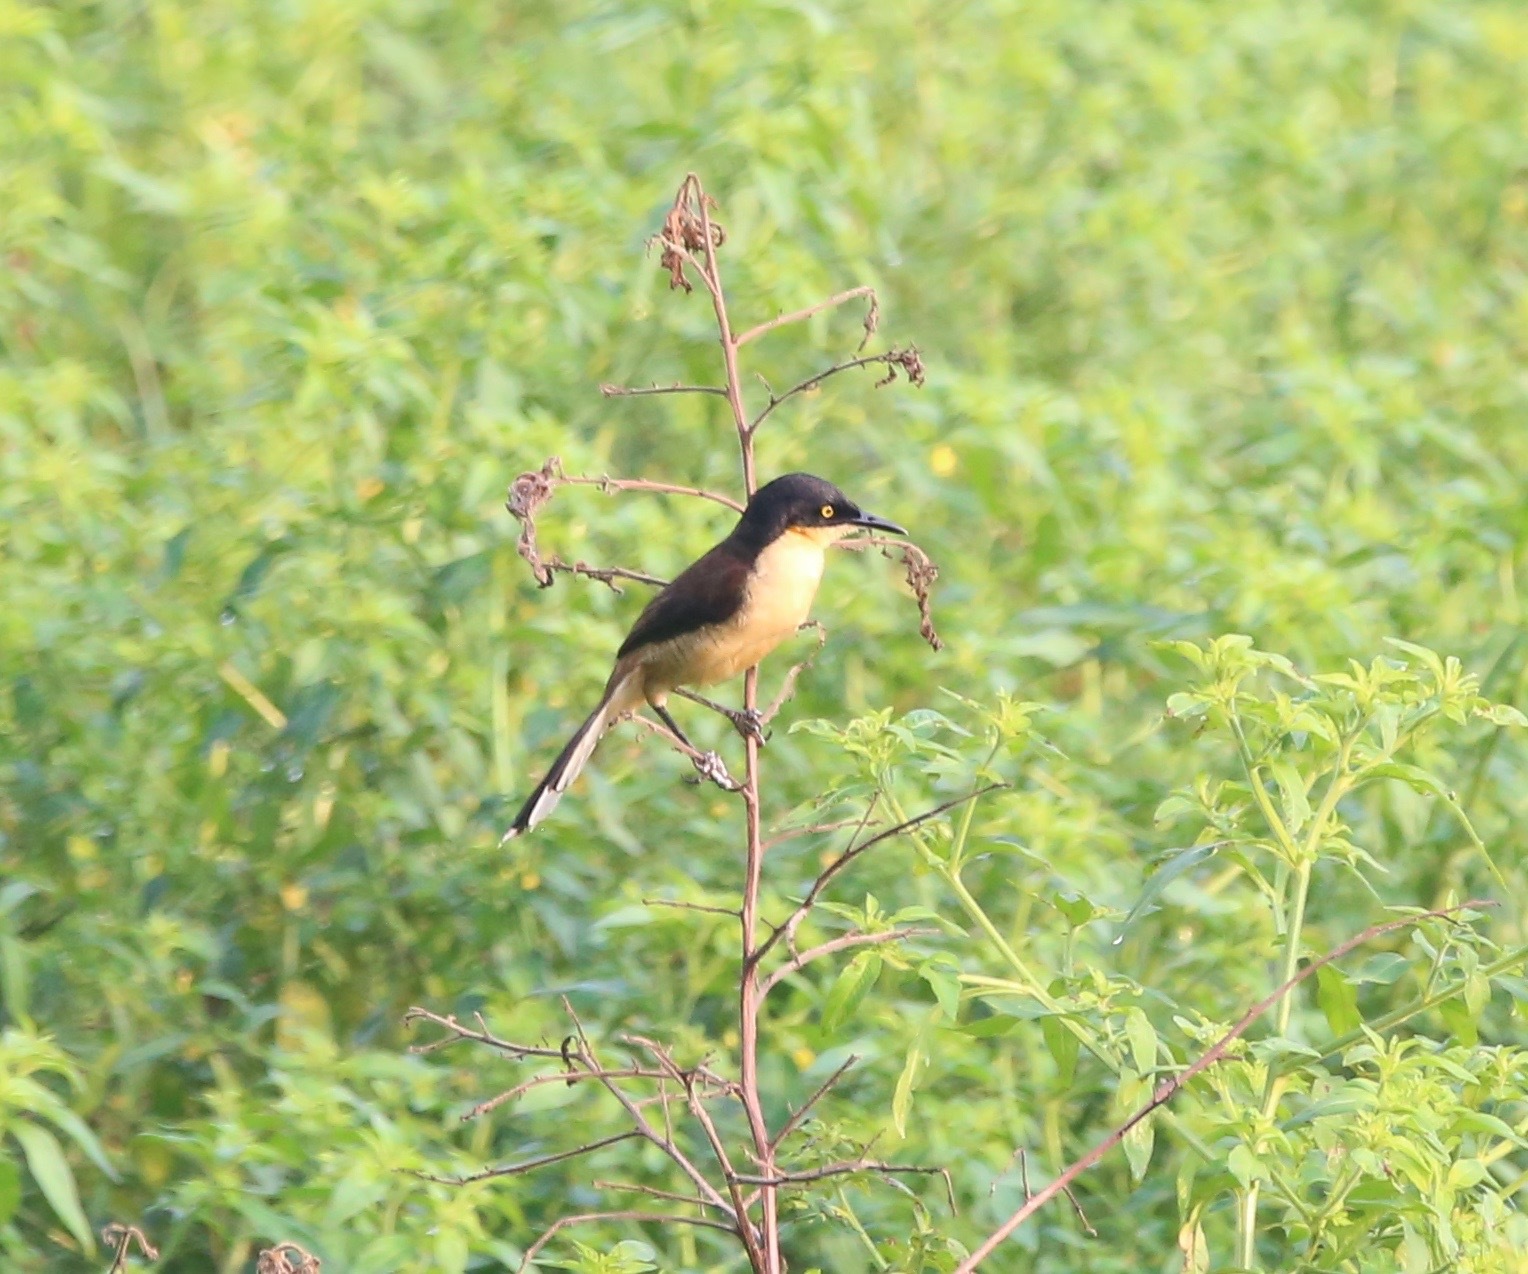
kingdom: Animalia
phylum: Chordata
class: Aves
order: Passeriformes
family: Donacobiidae
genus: Donacobius
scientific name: Donacobius atricapilla
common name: Black-capped donacobius
